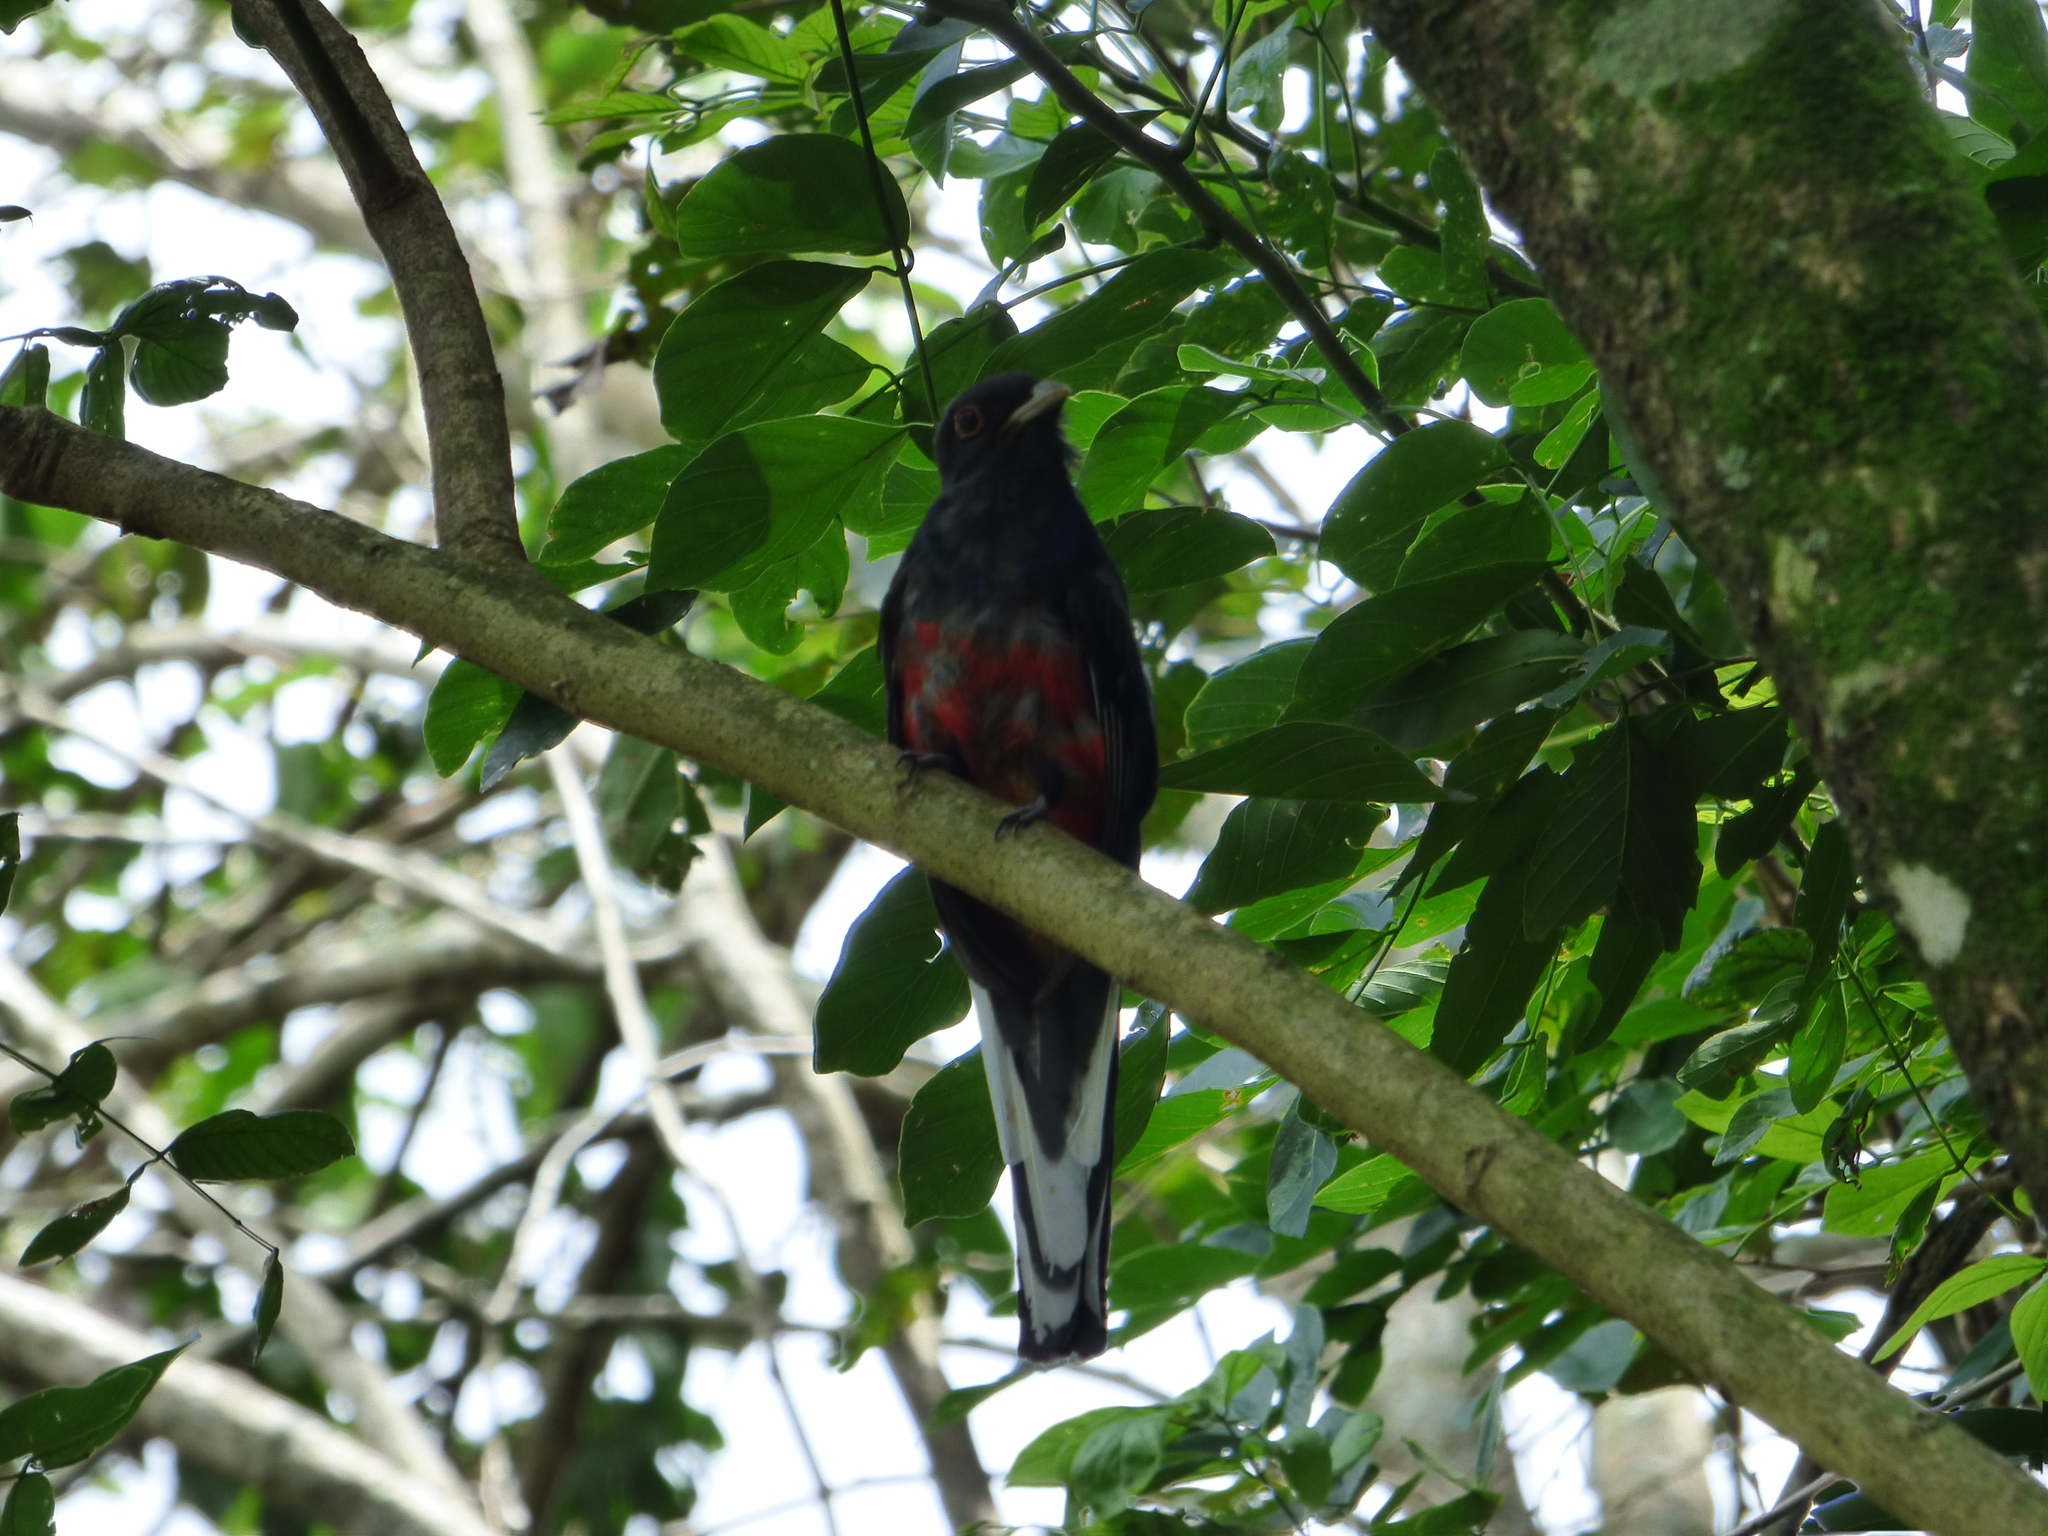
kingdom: Animalia
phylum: Chordata
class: Aves
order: Trogoniformes
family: Trogonidae
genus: Trogon
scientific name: Trogon surrucura
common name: Surucua trogon
